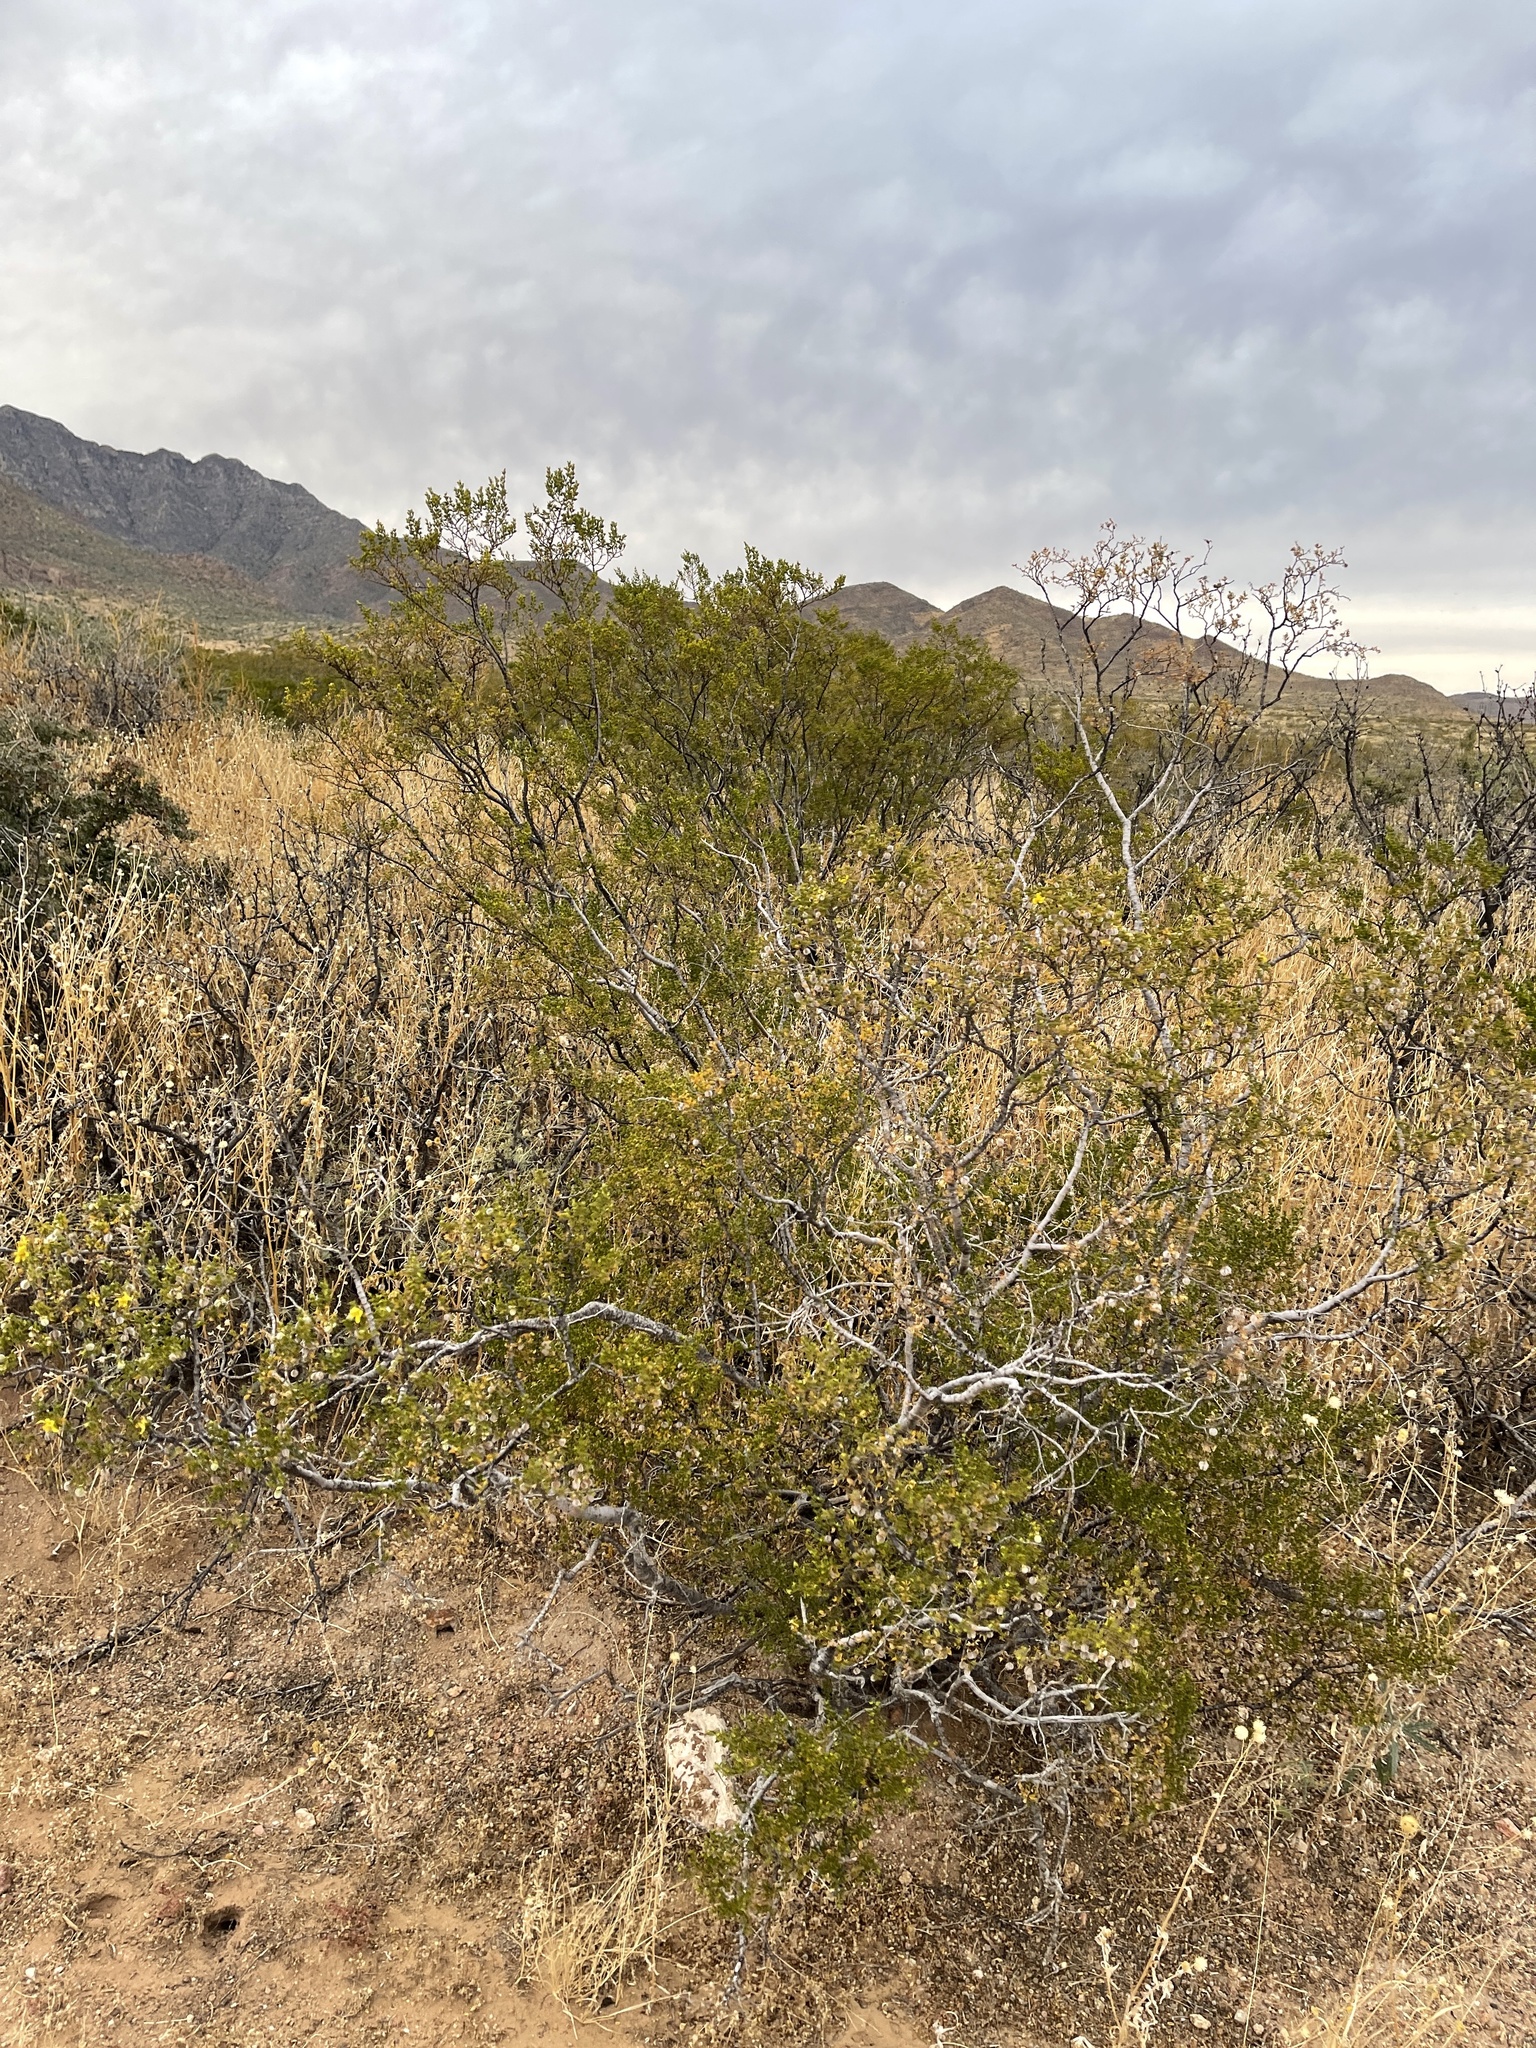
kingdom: Plantae
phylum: Tracheophyta
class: Magnoliopsida
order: Zygophyllales
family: Zygophyllaceae
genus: Larrea
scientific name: Larrea tridentata
